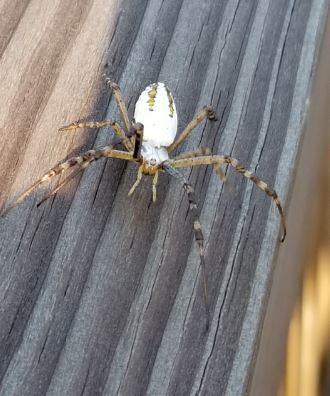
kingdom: Animalia
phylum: Arthropoda
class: Arachnida
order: Araneae
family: Araneidae
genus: Argiope
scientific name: Argiope trifasciata
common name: Banded garden spider
